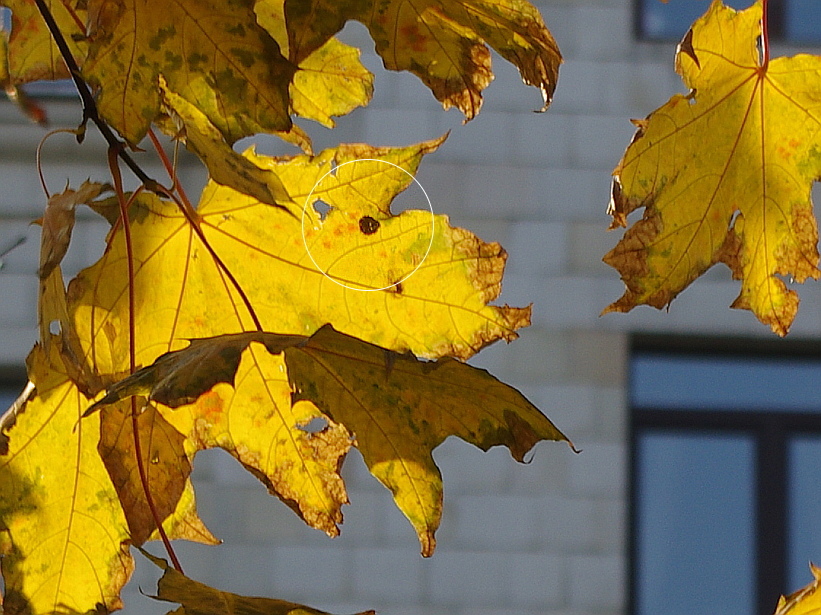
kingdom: Fungi
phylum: Ascomycota
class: Leotiomycetes
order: Rhytismatales
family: Rhytismataceae
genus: Rhytisma
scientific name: Rhytisma acerinum
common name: European tar spot
